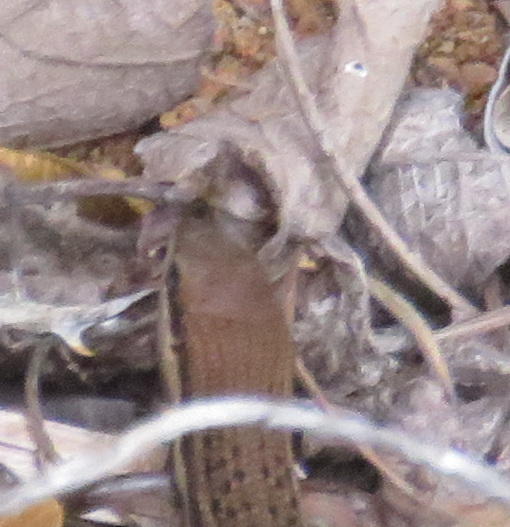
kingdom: Animalia
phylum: Chordata
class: Squamata
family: Scincidae
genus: Trachylepis
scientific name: Trachylepis varia
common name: Eastern variable skink
